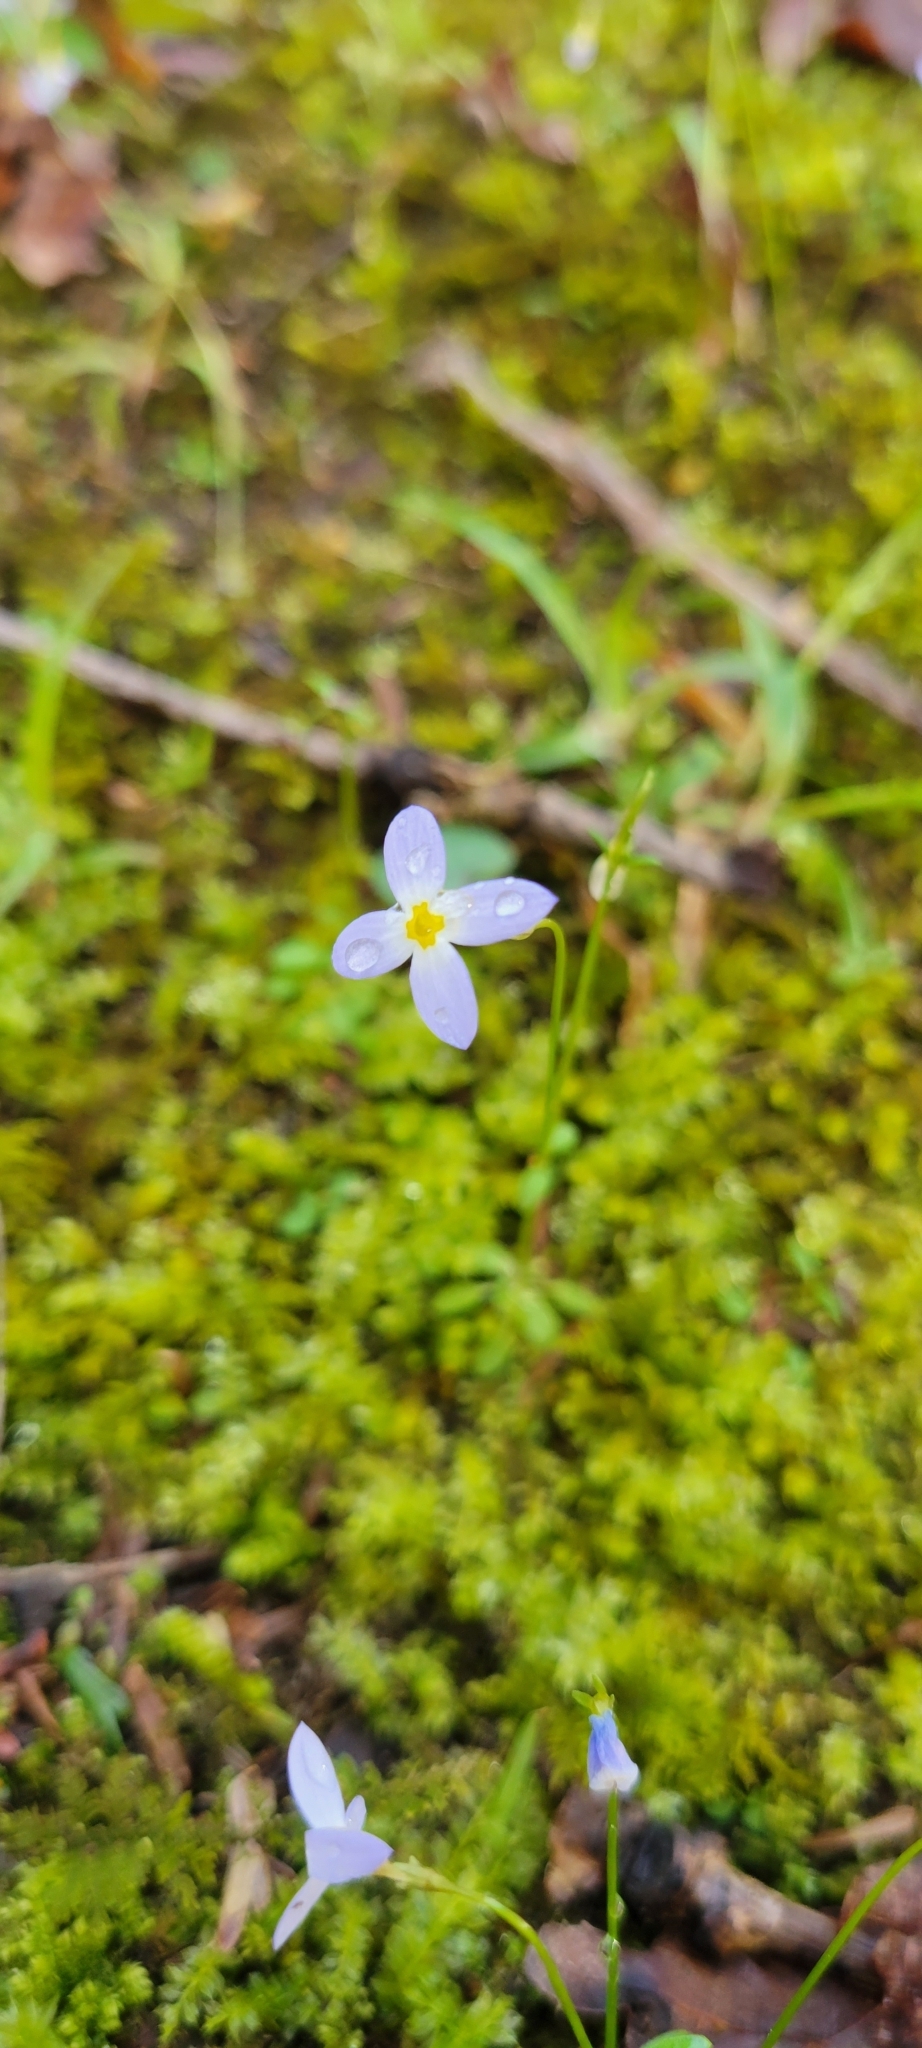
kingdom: Plantae
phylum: Tracheophyta
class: Magnoliopsida
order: Gentianales
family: Rubiaceae
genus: Houstonia
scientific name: Houstonia caerulea
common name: Bluets
